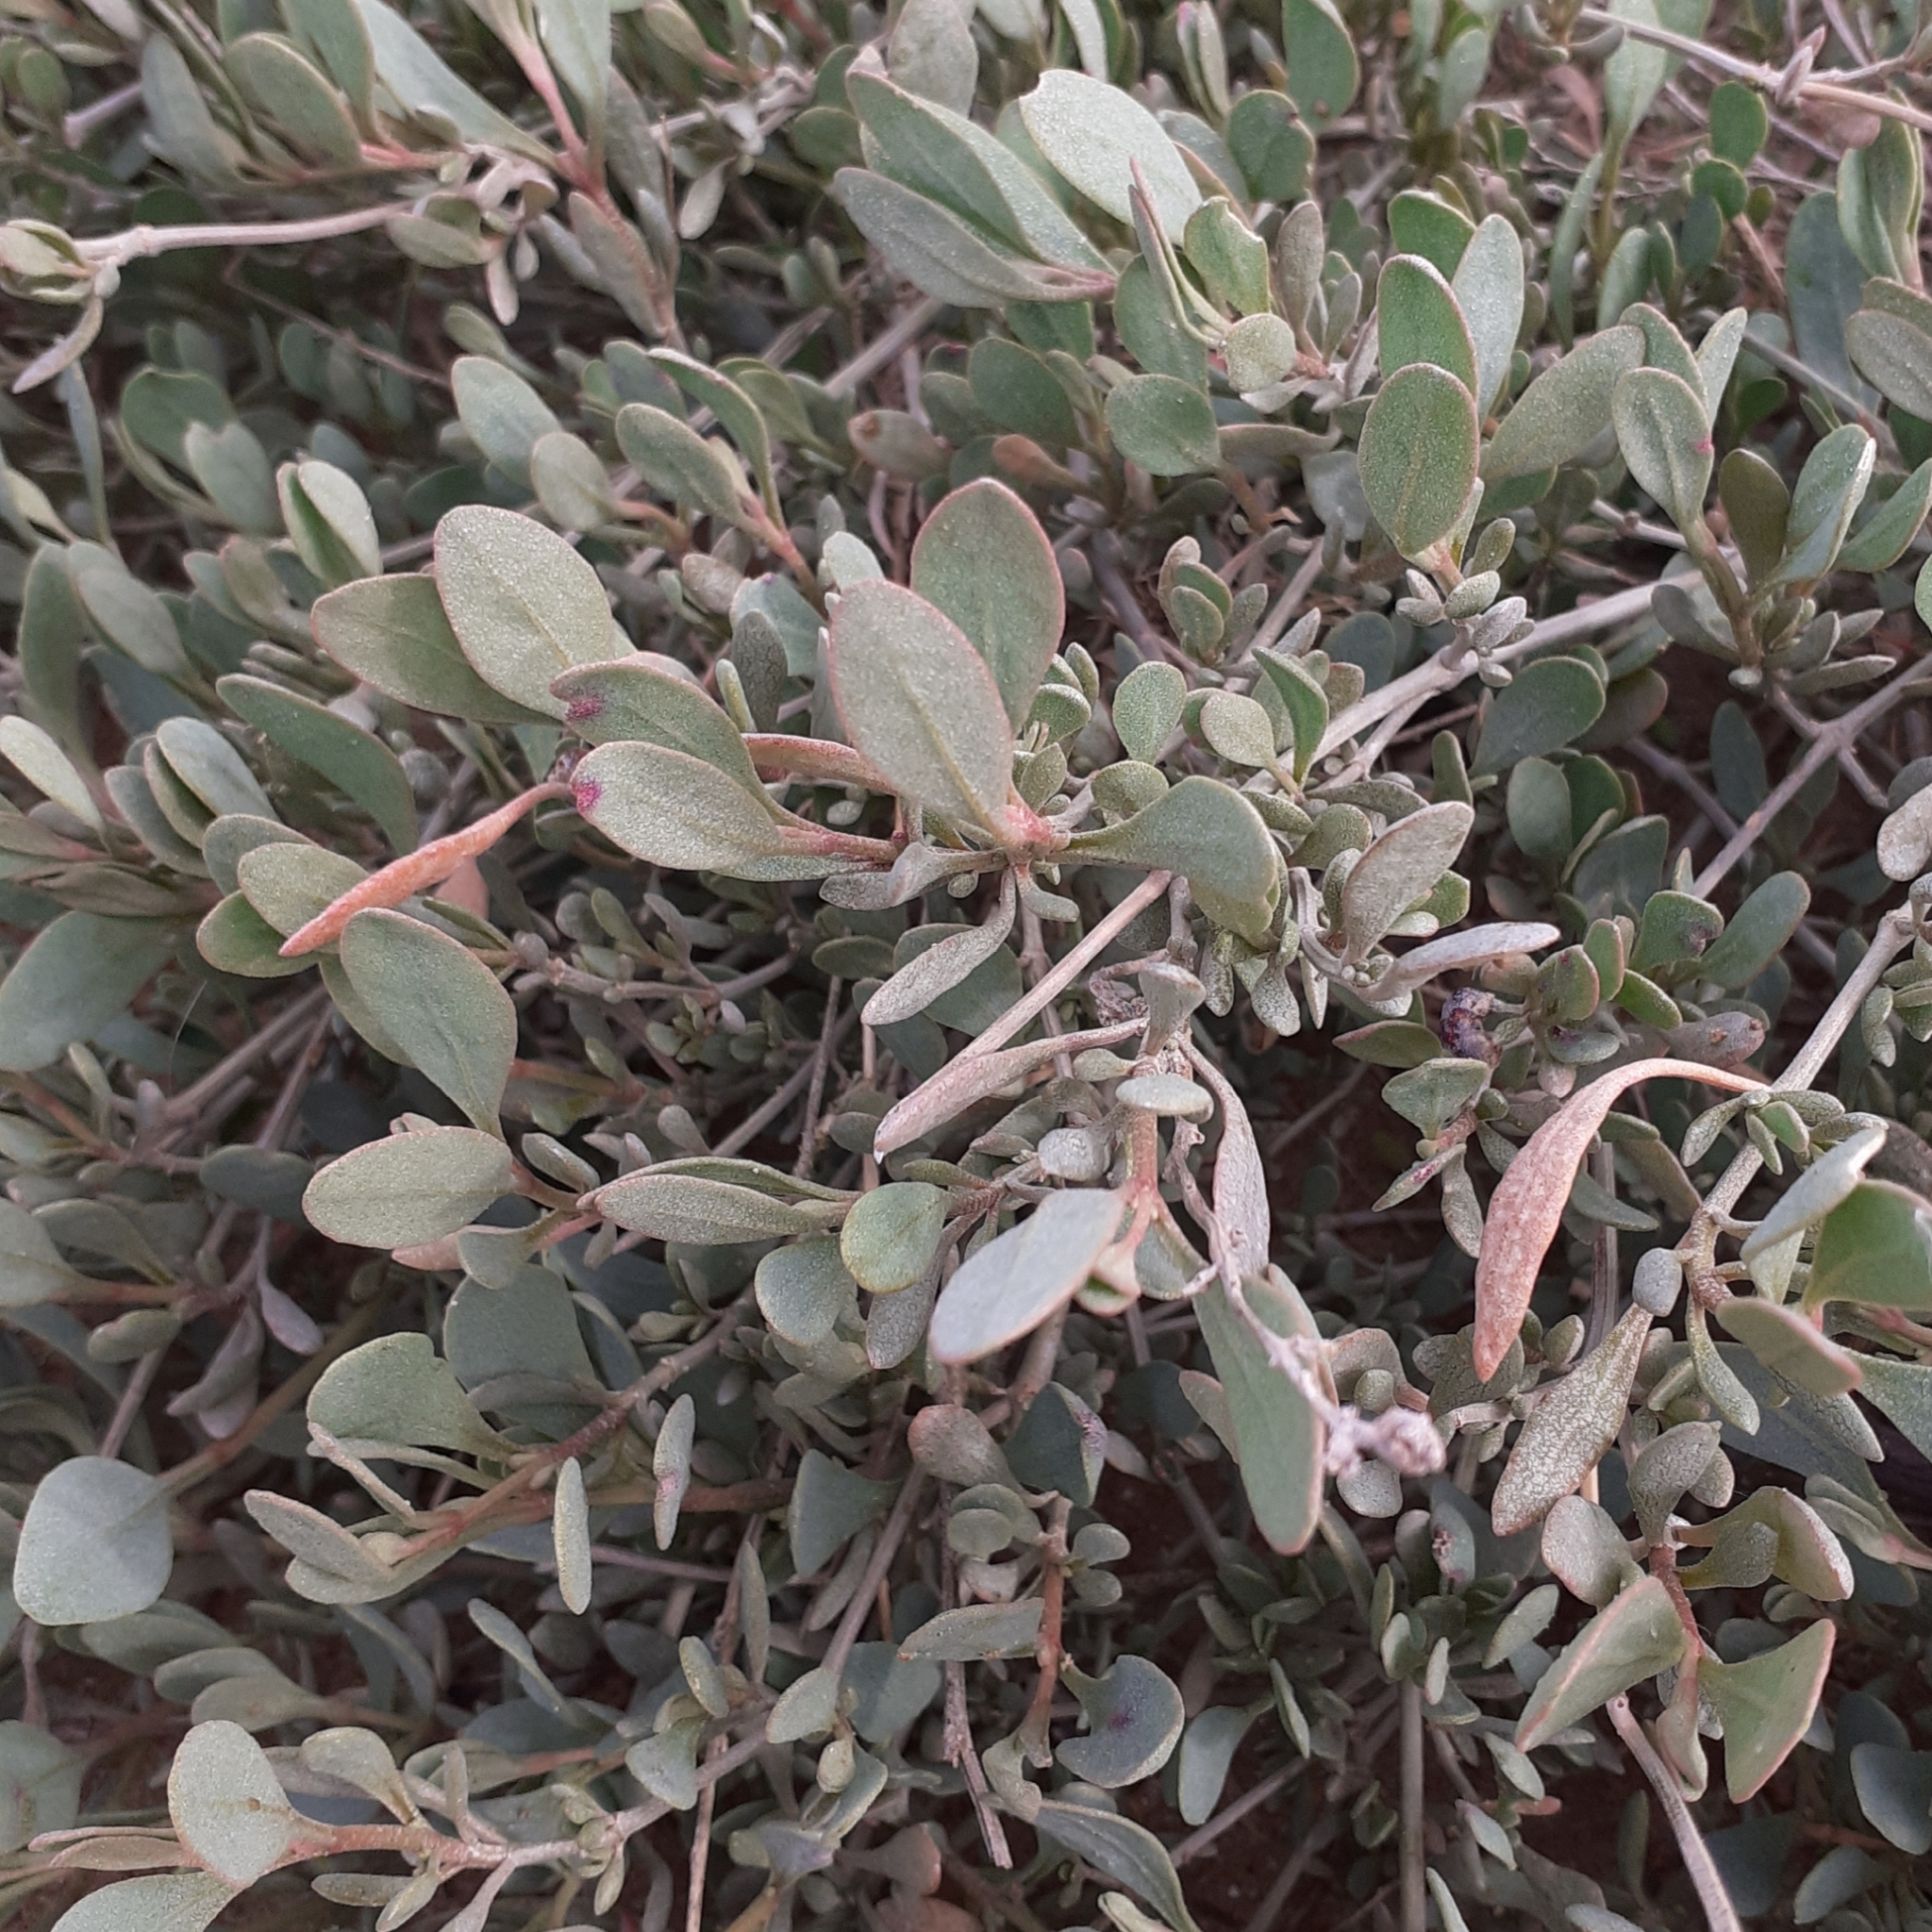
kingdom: Plantae
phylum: Tracheophyta
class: Magnoliopsida
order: Caryophyllales
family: Amaranthaceae
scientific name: Amaranthaceae
